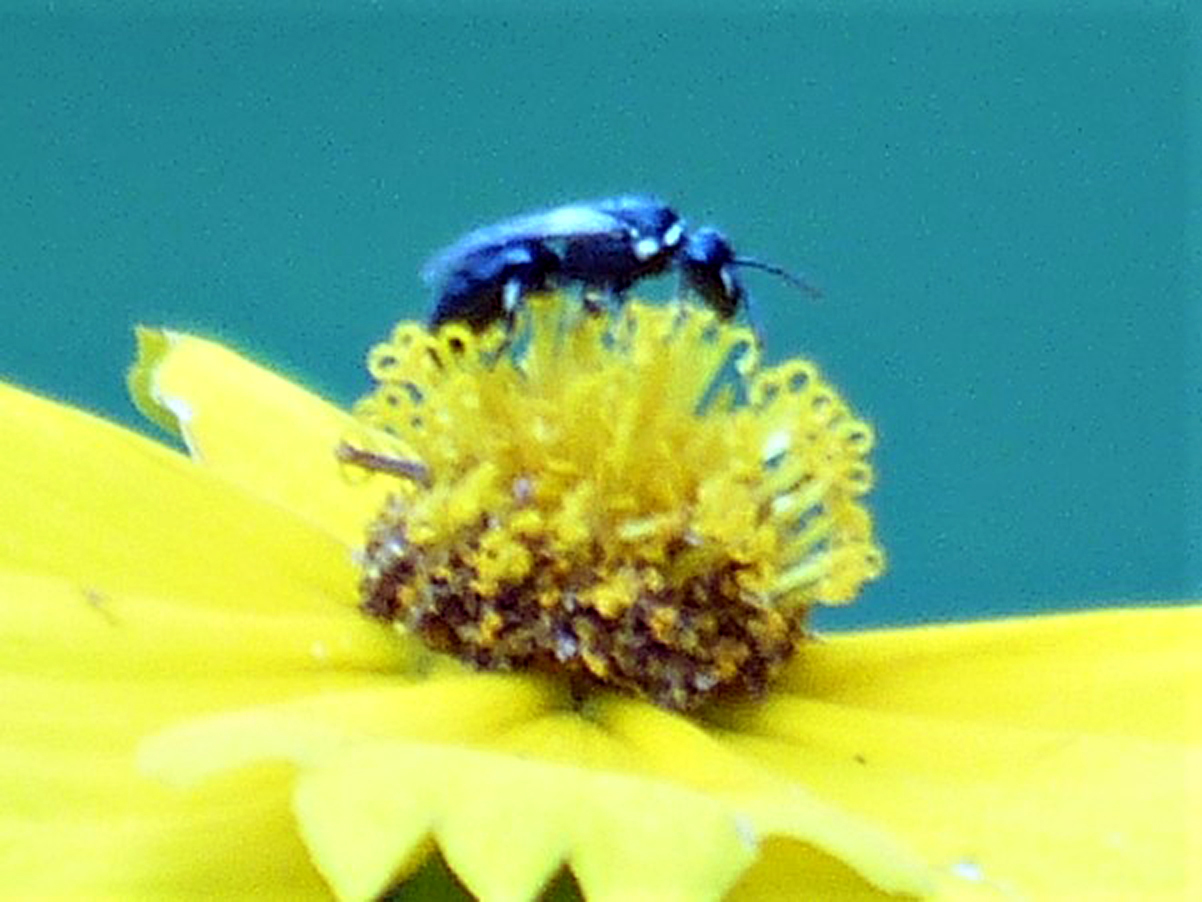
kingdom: Animalia
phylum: Arthropoda
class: Insecta
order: Hymenoptera
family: Colletidae
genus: Hylaeus
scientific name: Hylaeus
